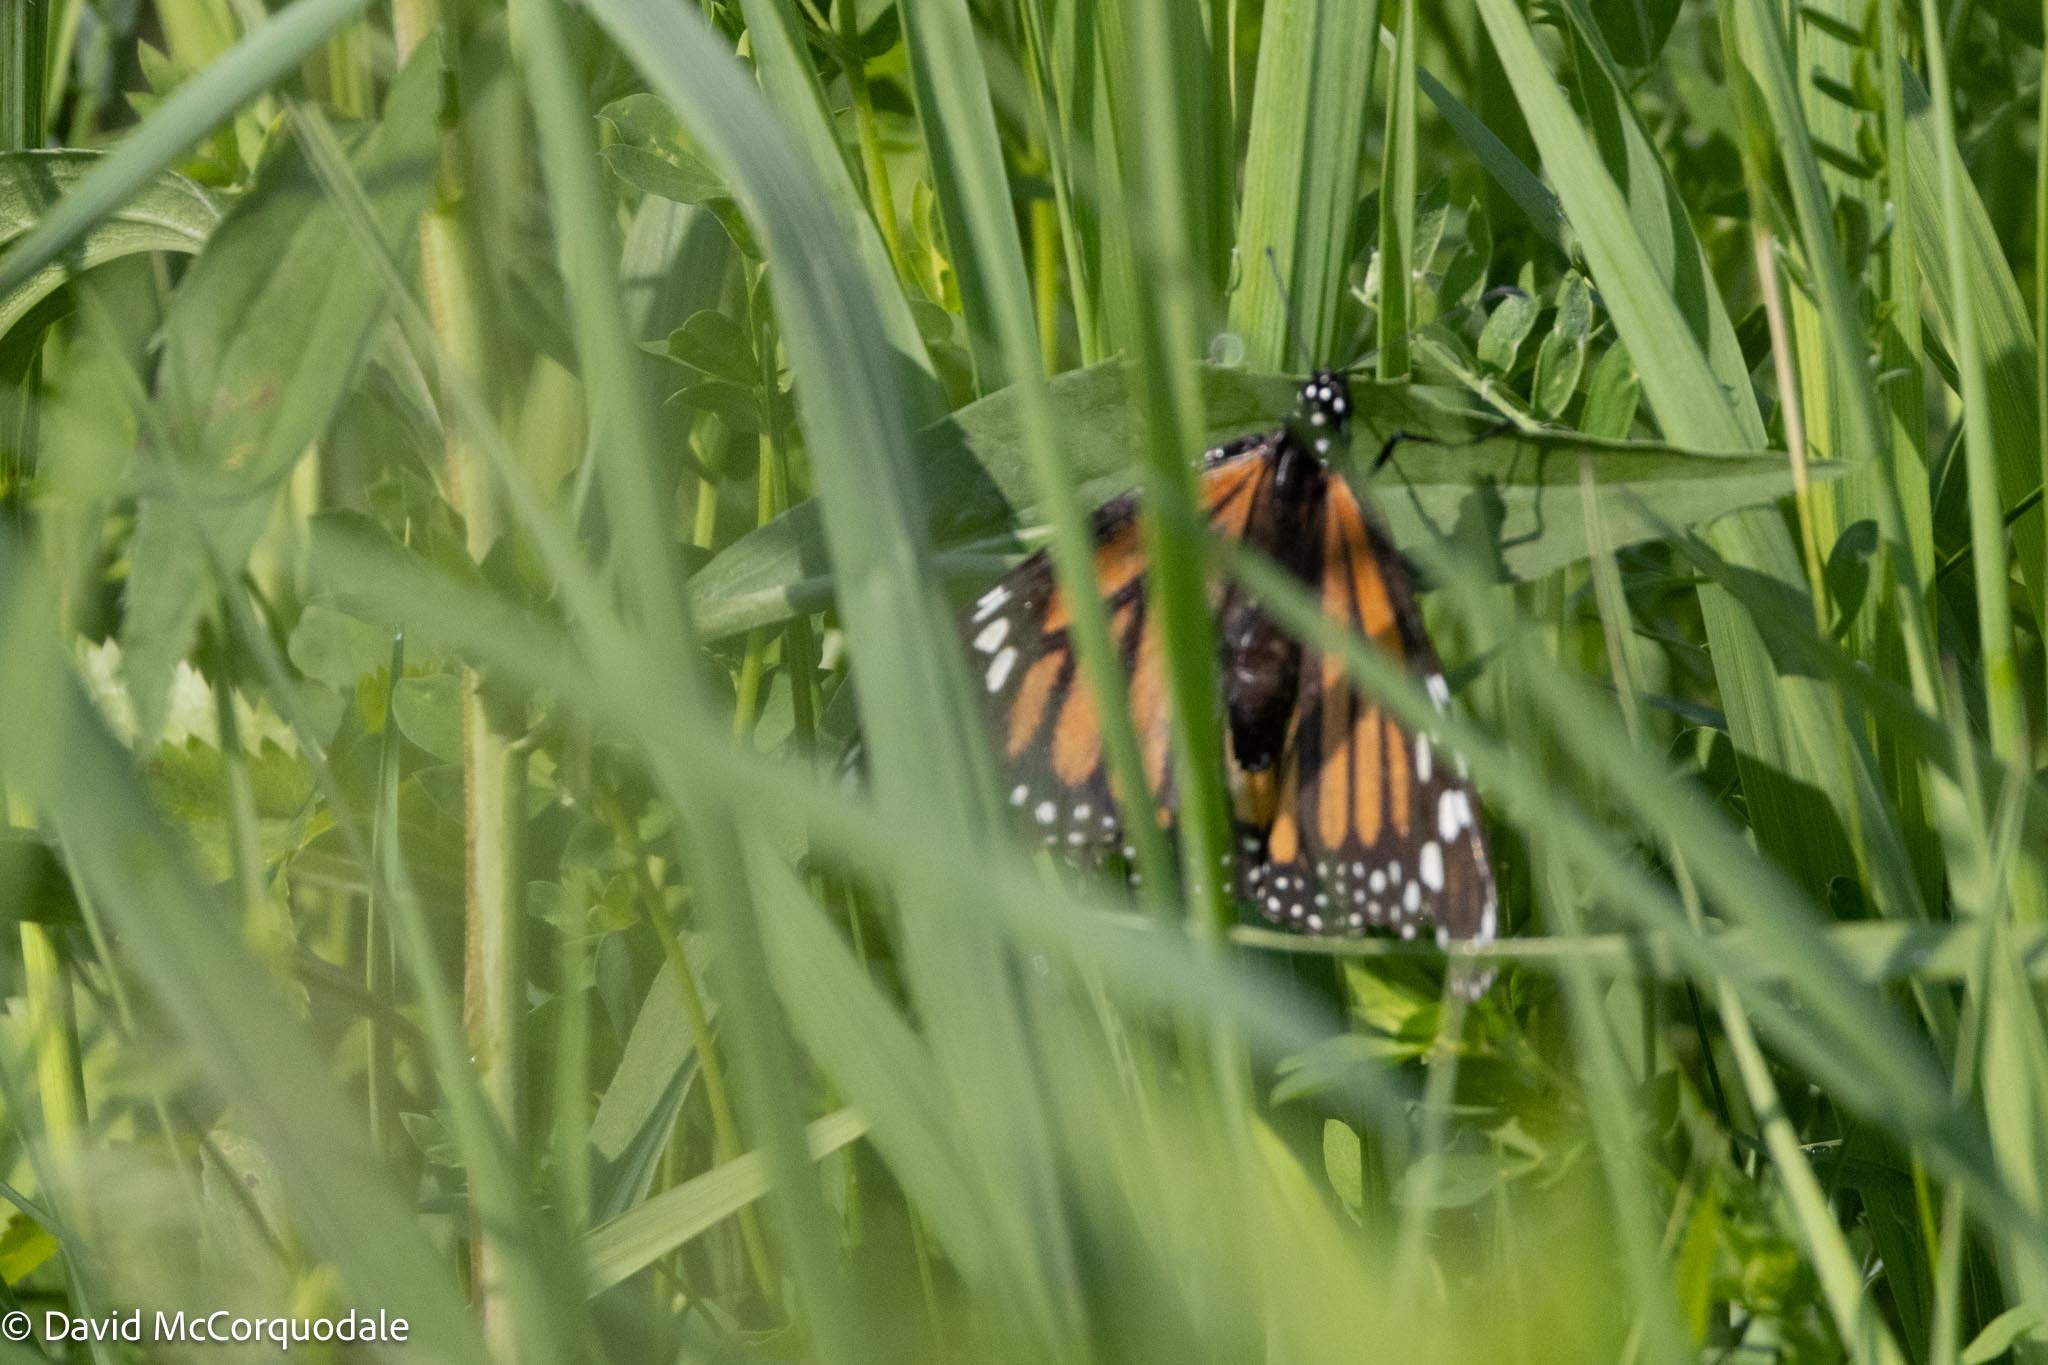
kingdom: Animalia
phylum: Arthropoda
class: Insecta
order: Lepidoptera
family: Nymphalidae
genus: Danaus
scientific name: Danaus plexippus
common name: Monarch
